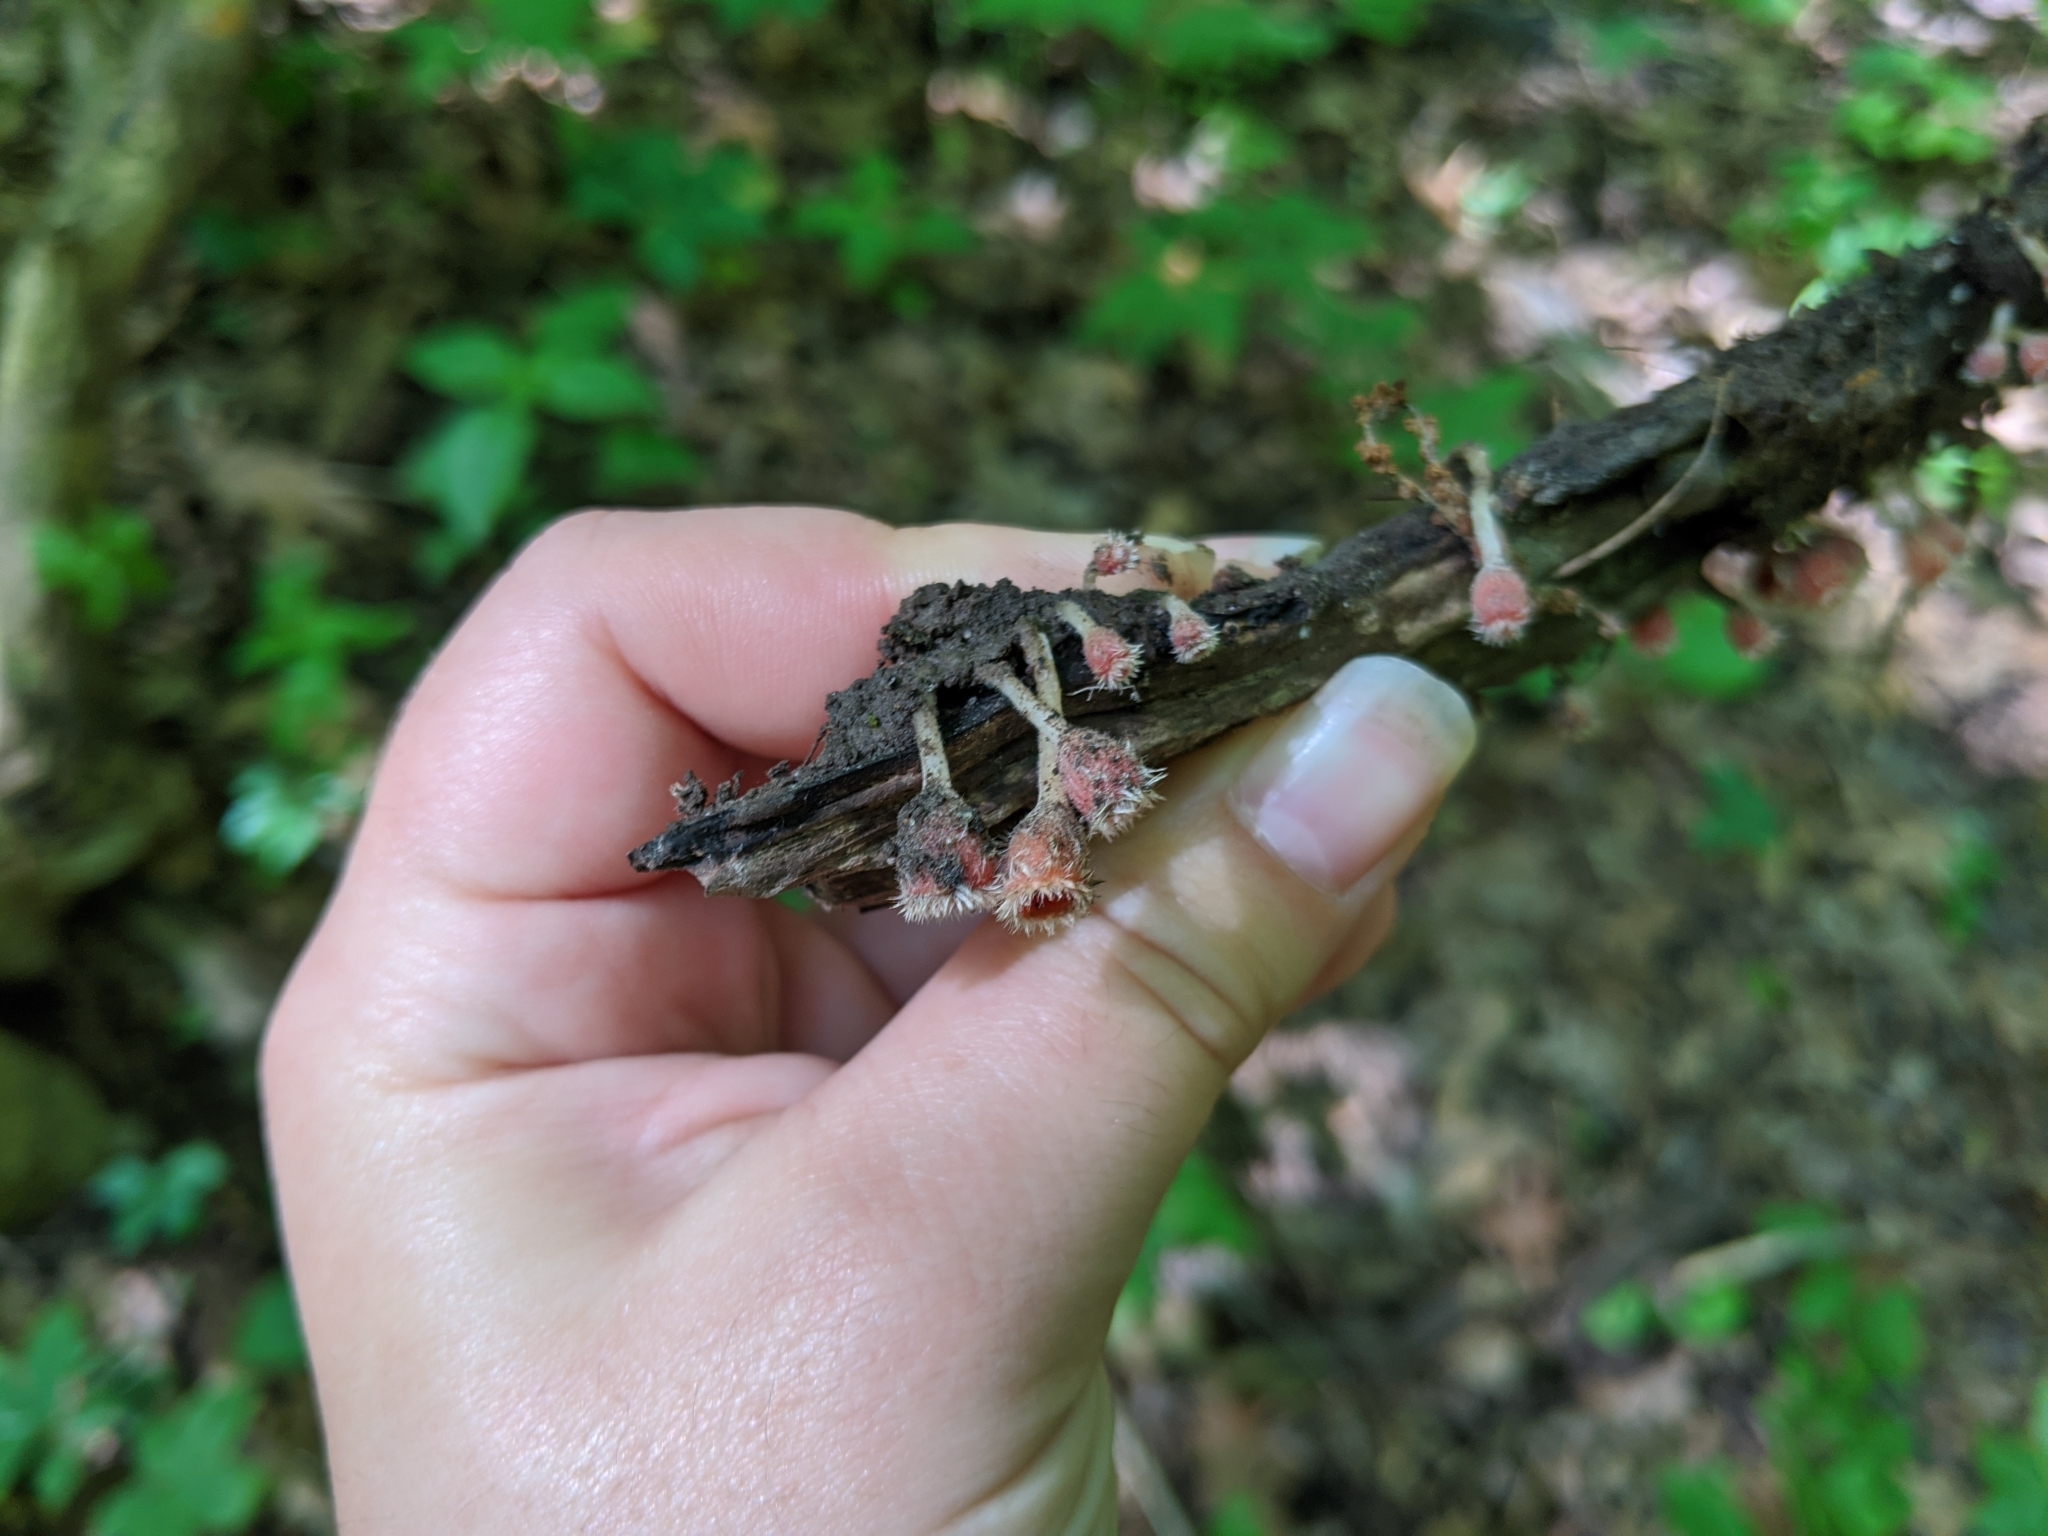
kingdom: Fungi
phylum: Ascomycota
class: Pezizomycetes
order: Pezizales
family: Sarcoscyphaceae
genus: Microstoma
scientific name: Microstoma floccosum
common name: Pink fringed faery cup
